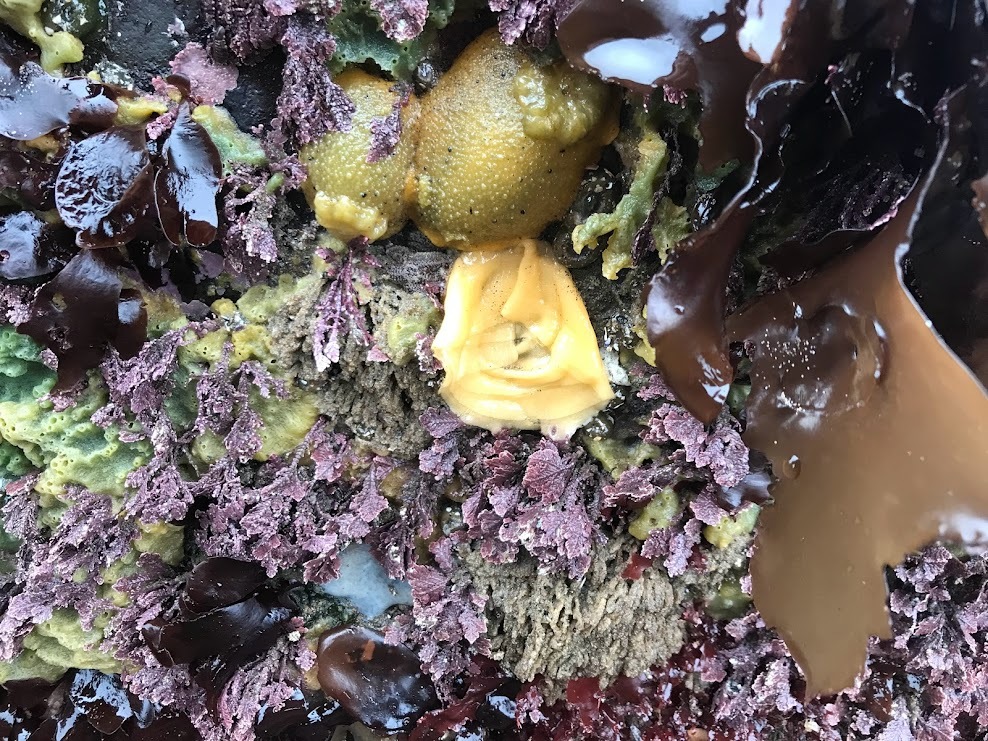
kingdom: Animalia
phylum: Mollusca
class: Gastropoda
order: Nudibranchia
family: Dorididae
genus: Doris
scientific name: Doris montereyensis
